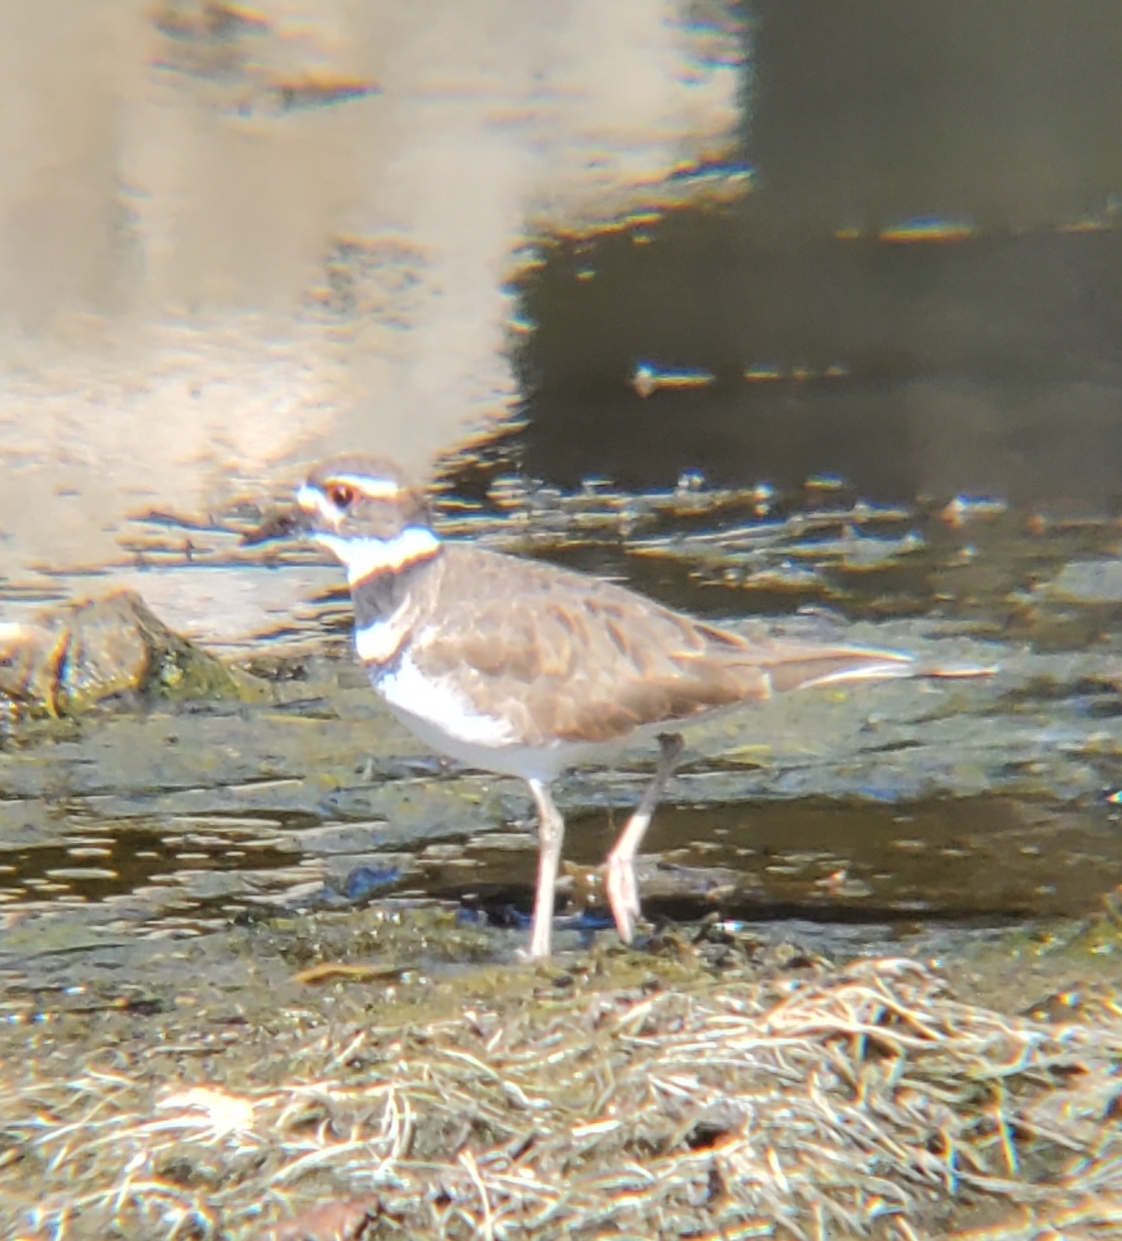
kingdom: Animalia
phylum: Chordata
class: Aves
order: Charadriiformes
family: Charadriidae
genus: Charadrius
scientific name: Charadrius vociferus
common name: Killdeer
